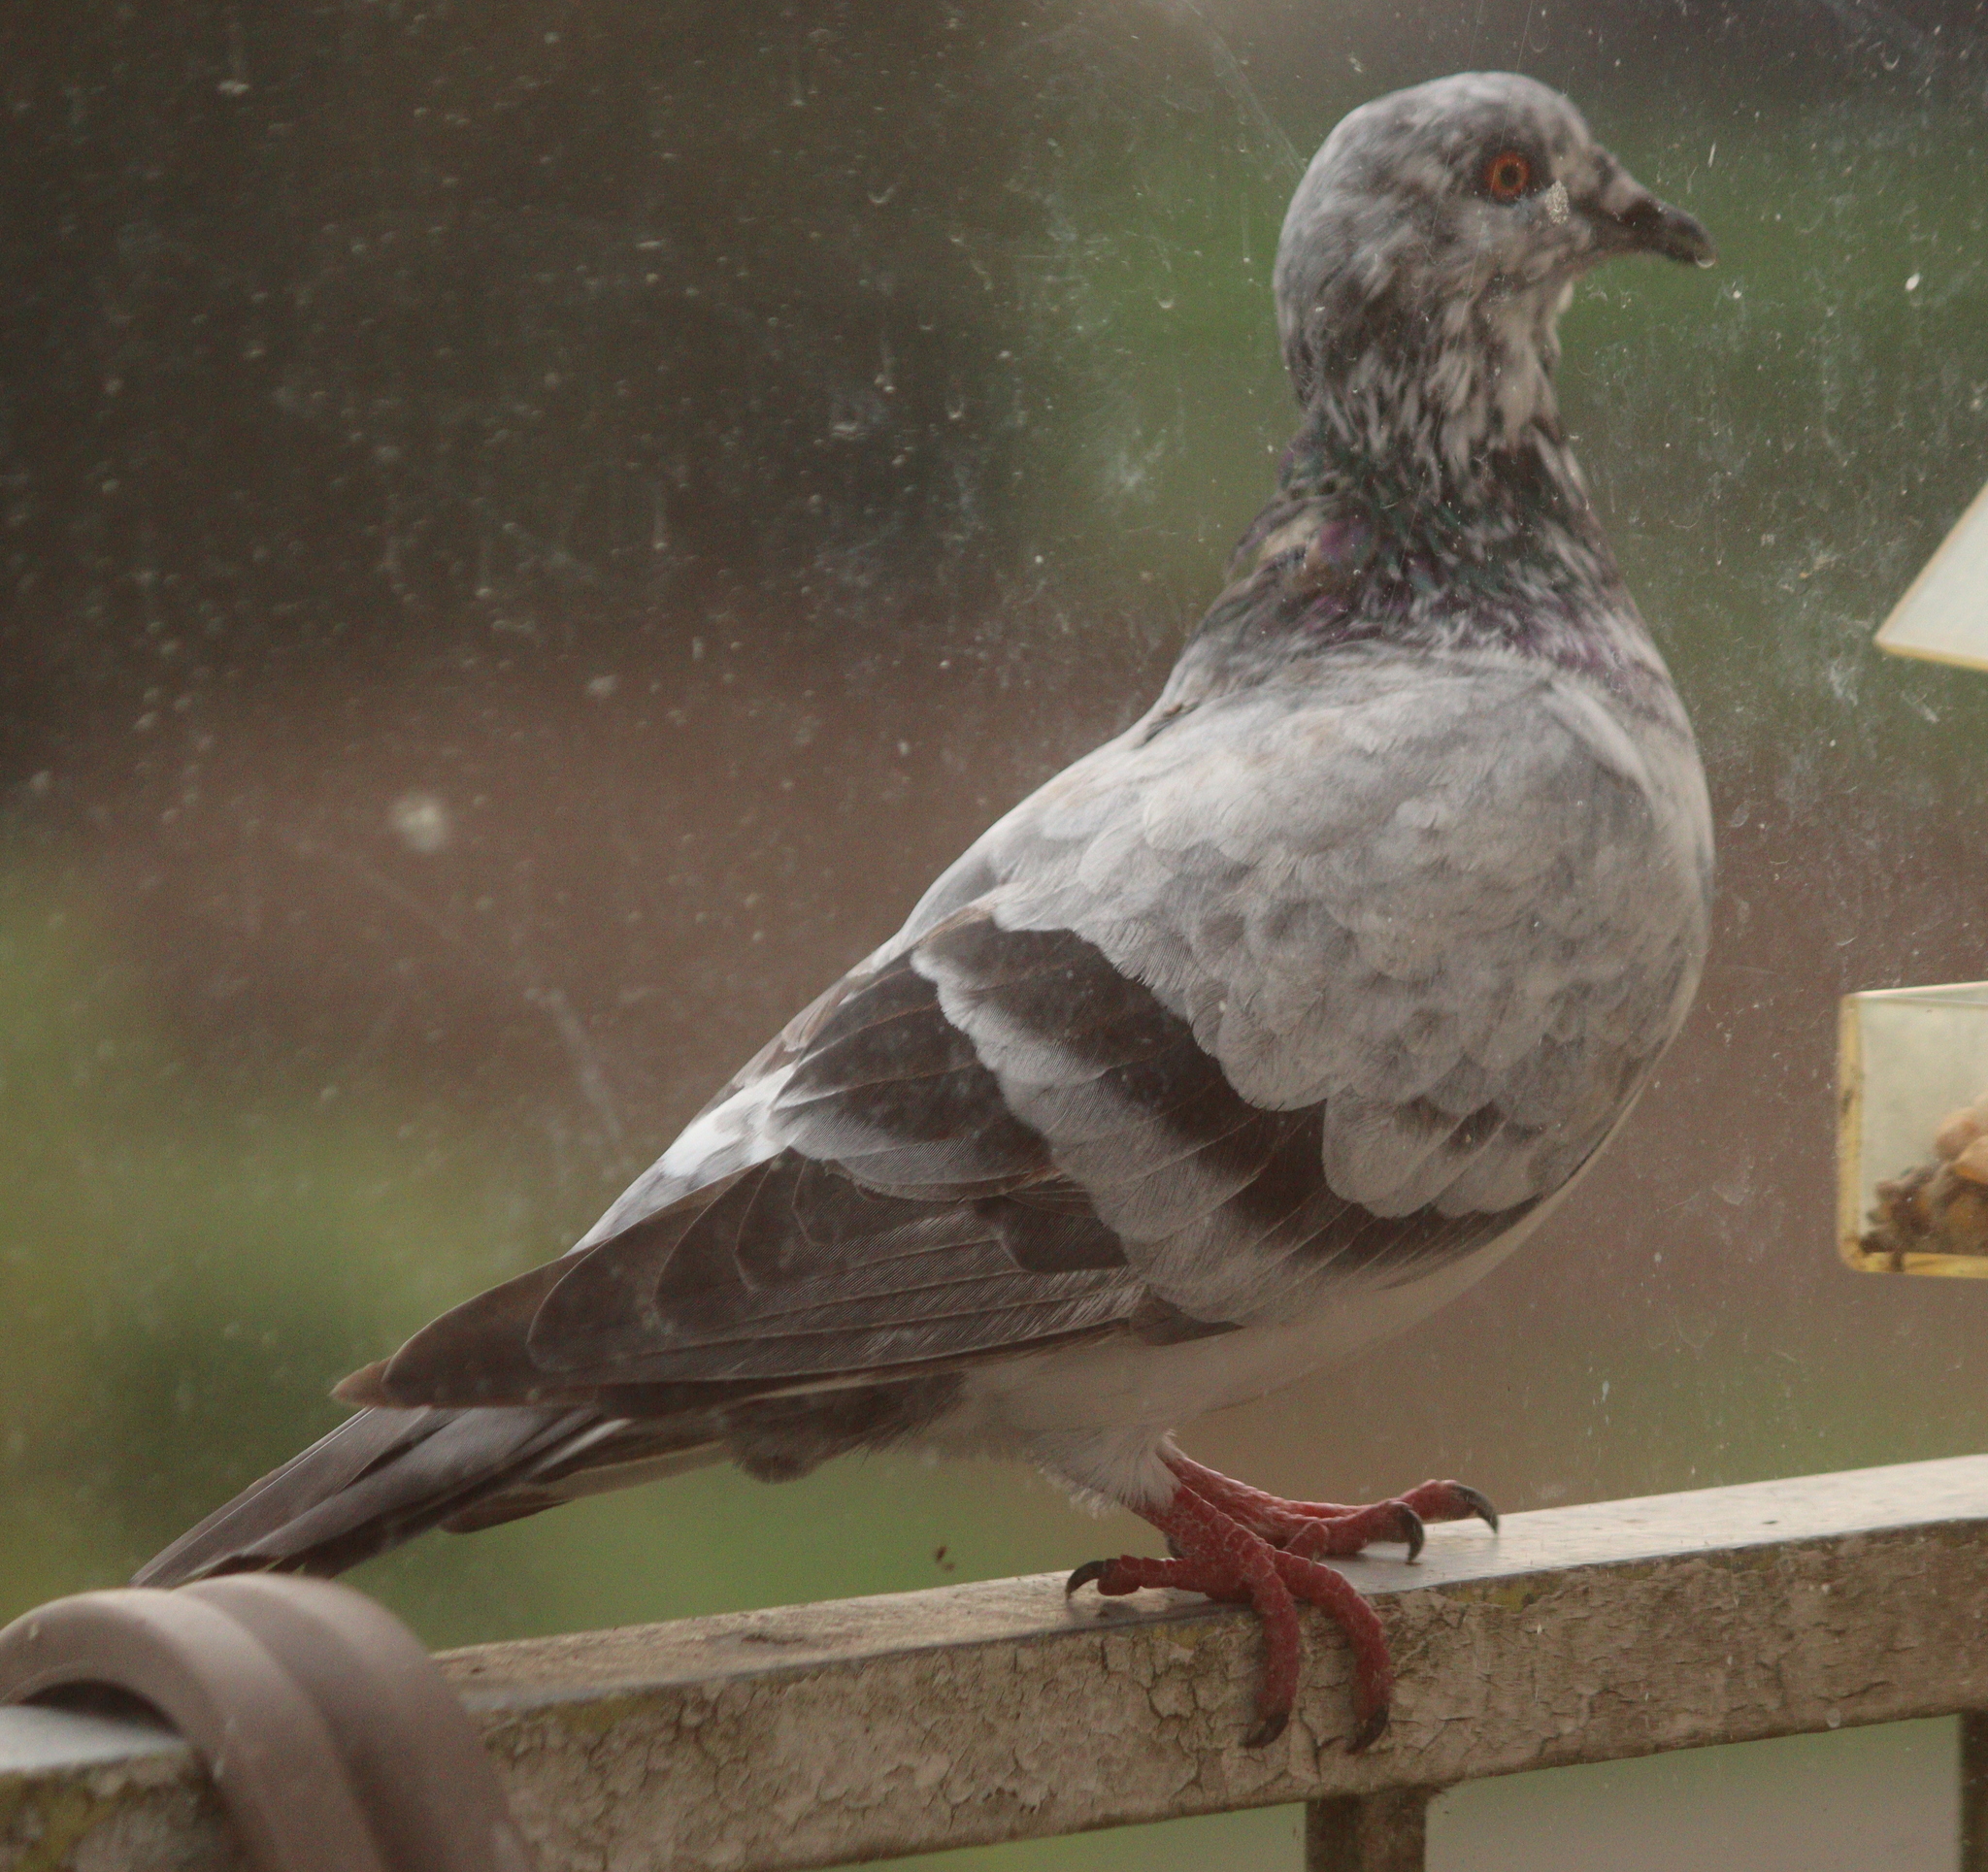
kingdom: Animalia
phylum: Chordata
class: Aves
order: Columbiformes
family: Columbidae
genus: Columba
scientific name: Columba livia
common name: Rock pigeon
